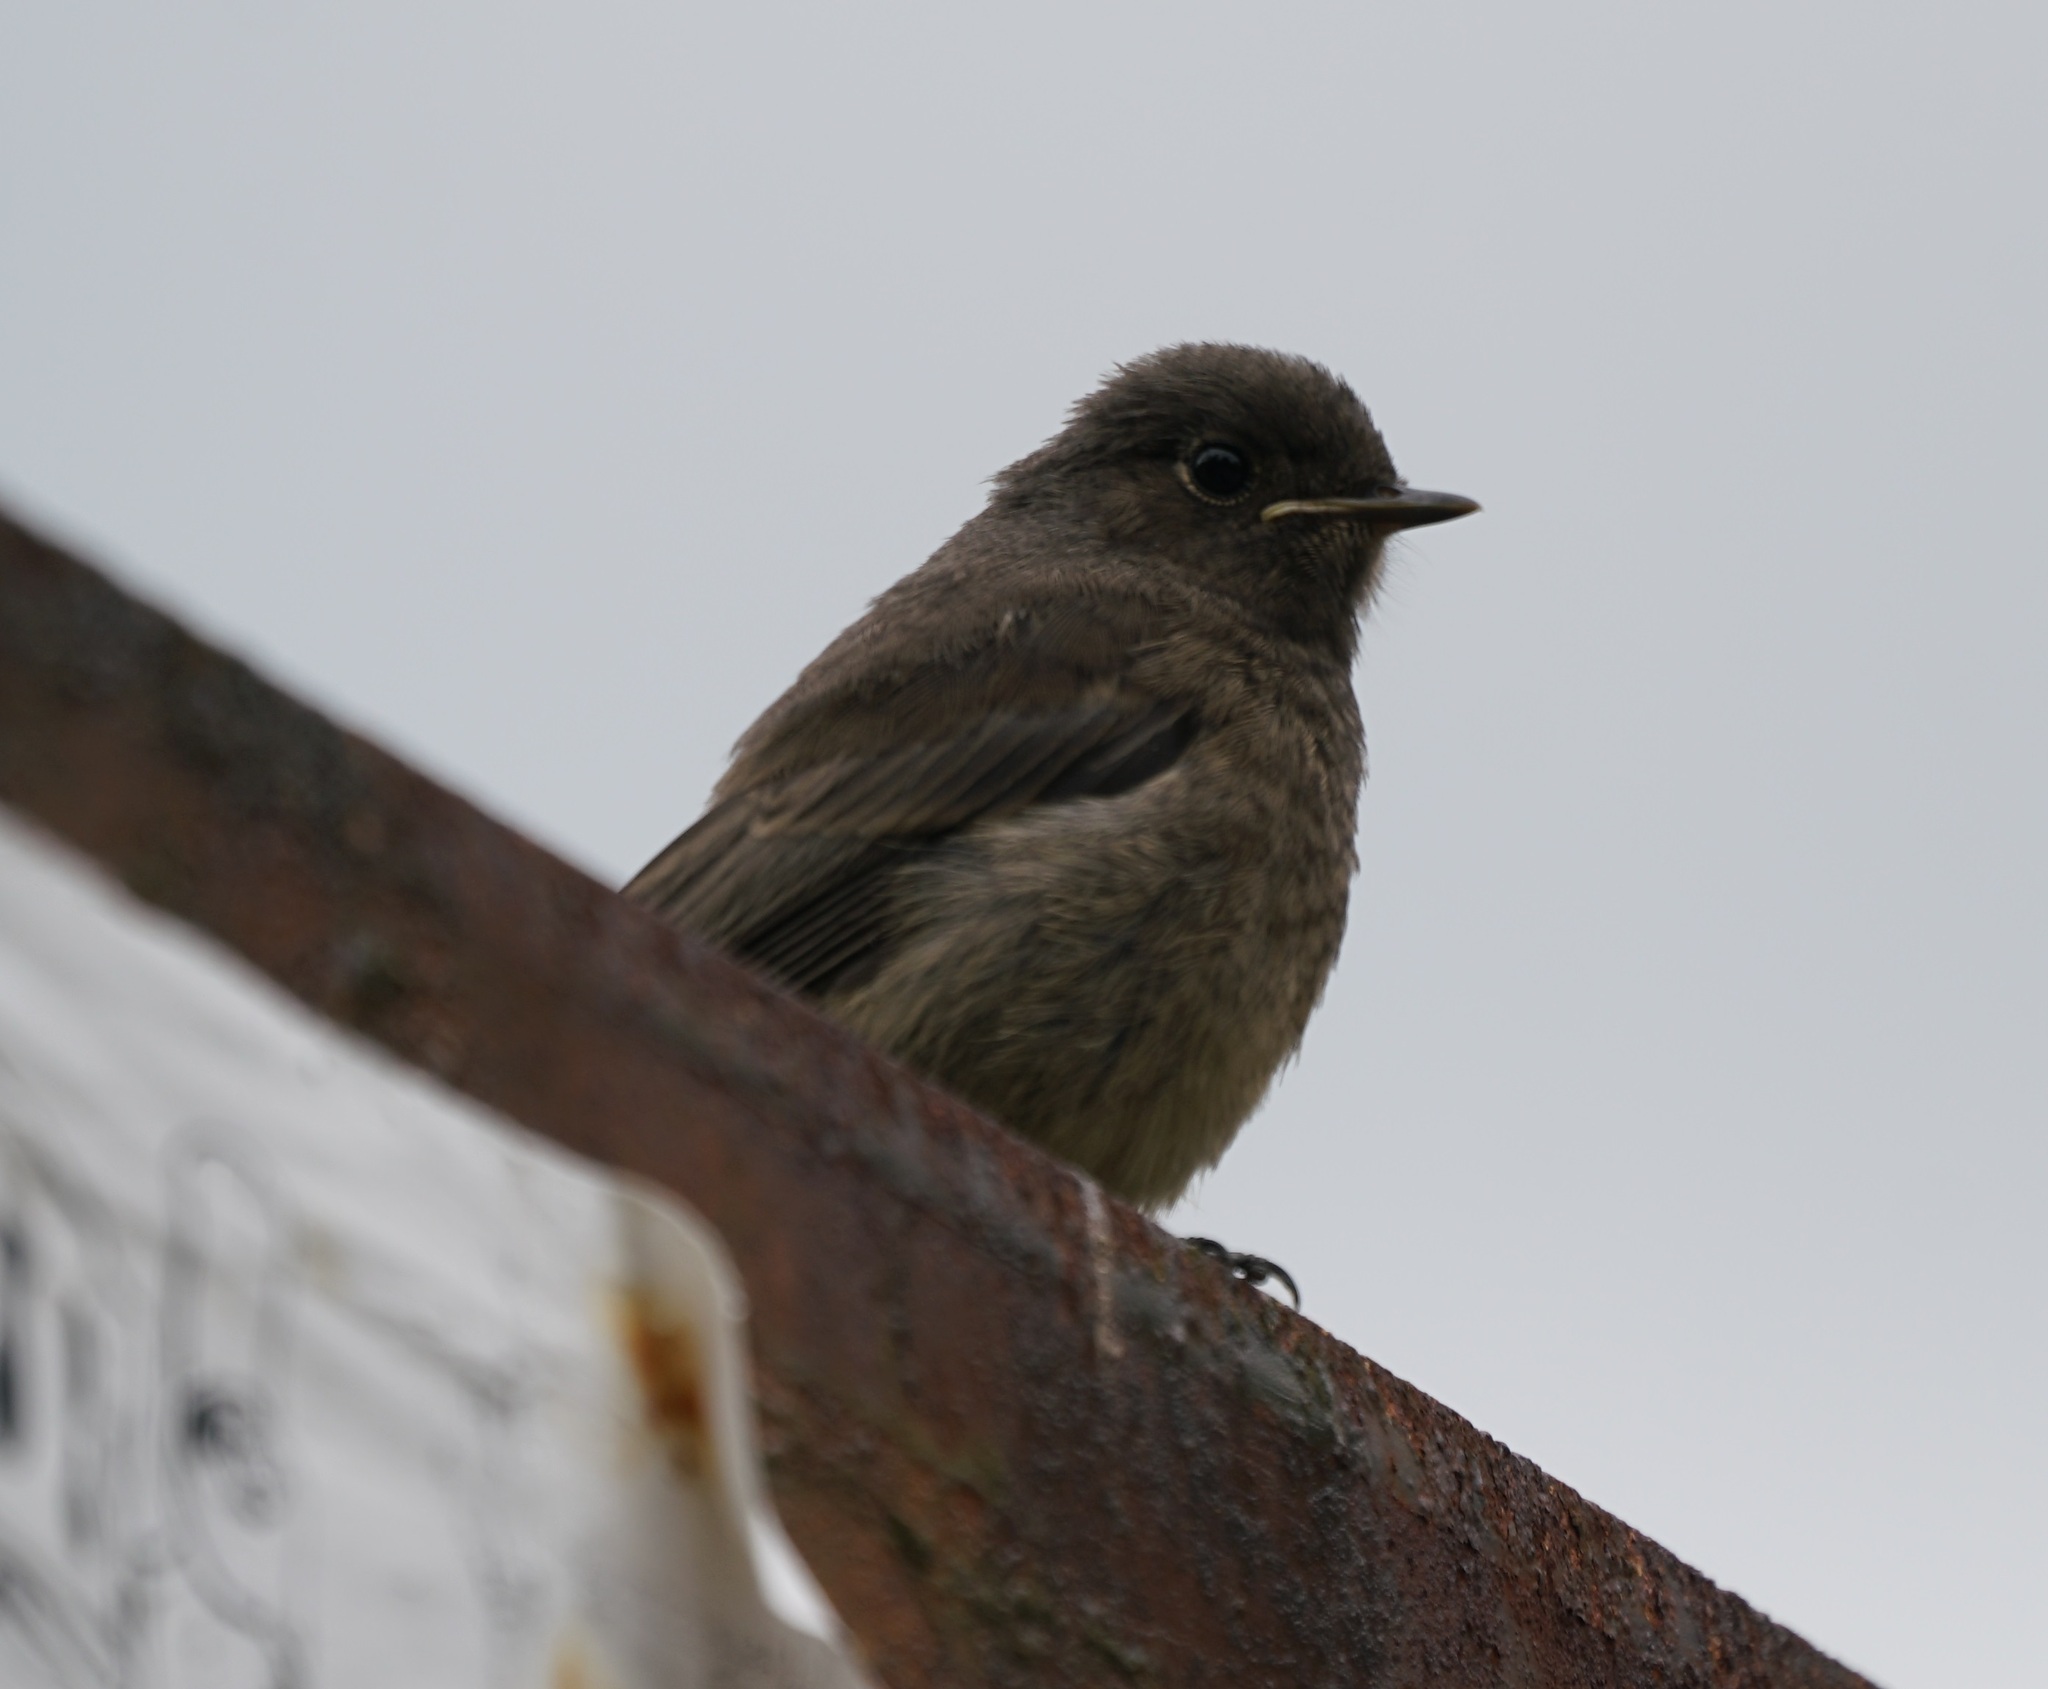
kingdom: Animalia
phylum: Chordata
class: Aves
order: Passeriformes
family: Muscicapidae
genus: Phoenicurus
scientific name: Phoenicurus ochruros
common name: Black redstart
